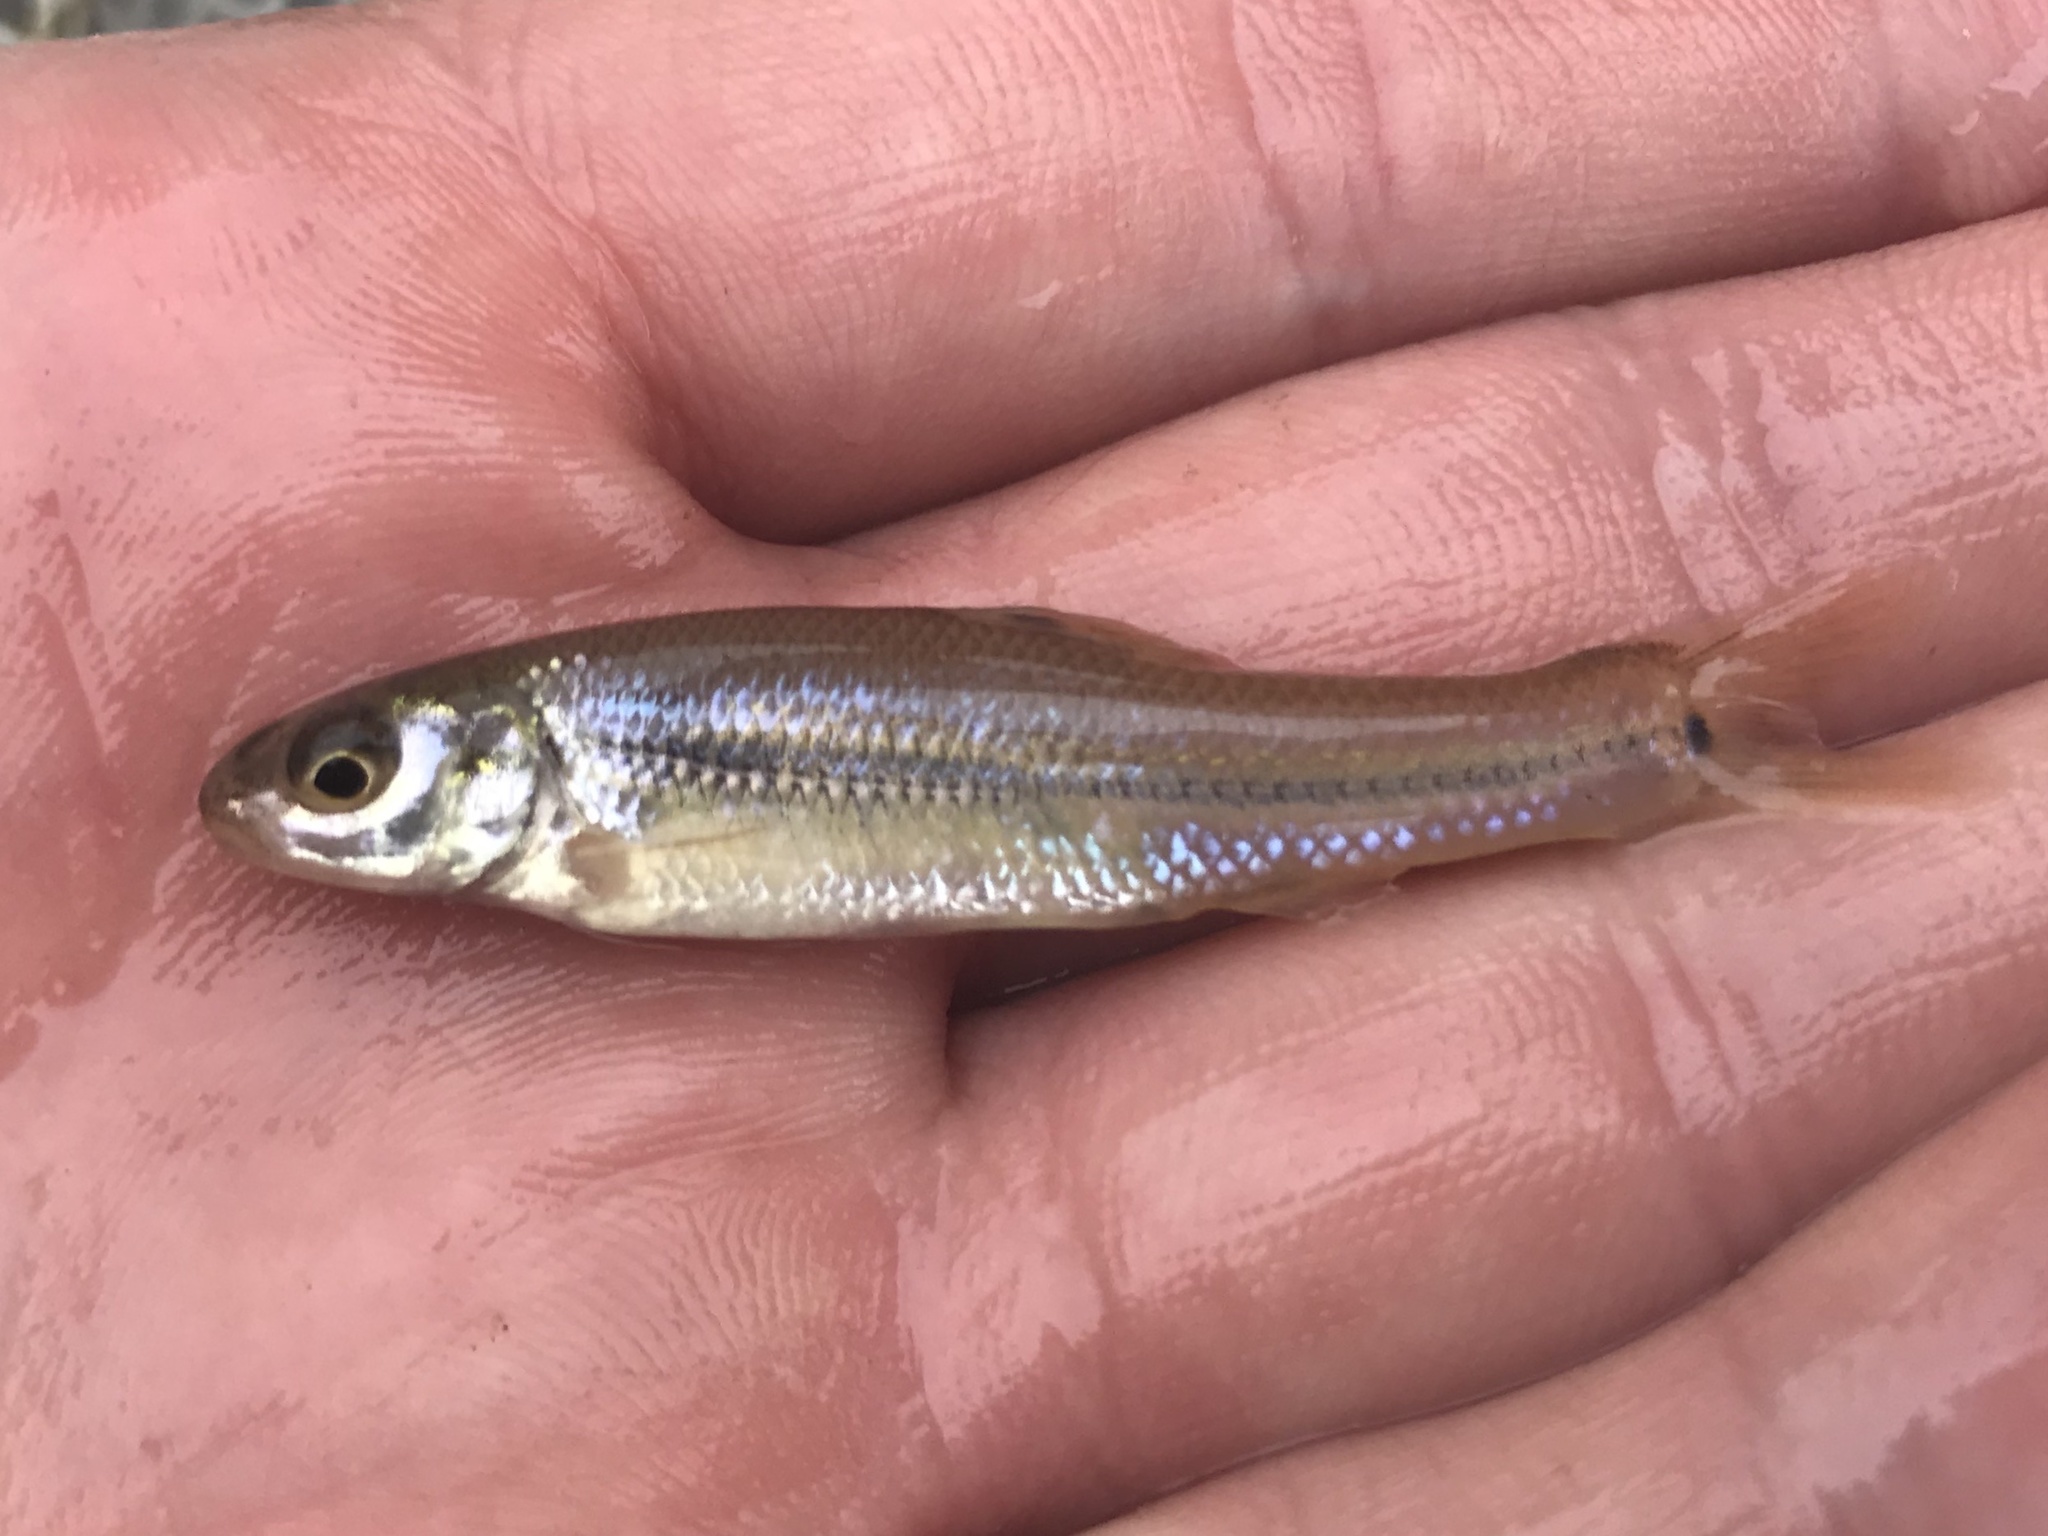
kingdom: Animalia
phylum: Chordata
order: Cypriniformes
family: Cyprinidae
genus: Pimephales
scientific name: Pimephales vigilax
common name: Bullhead minnow
